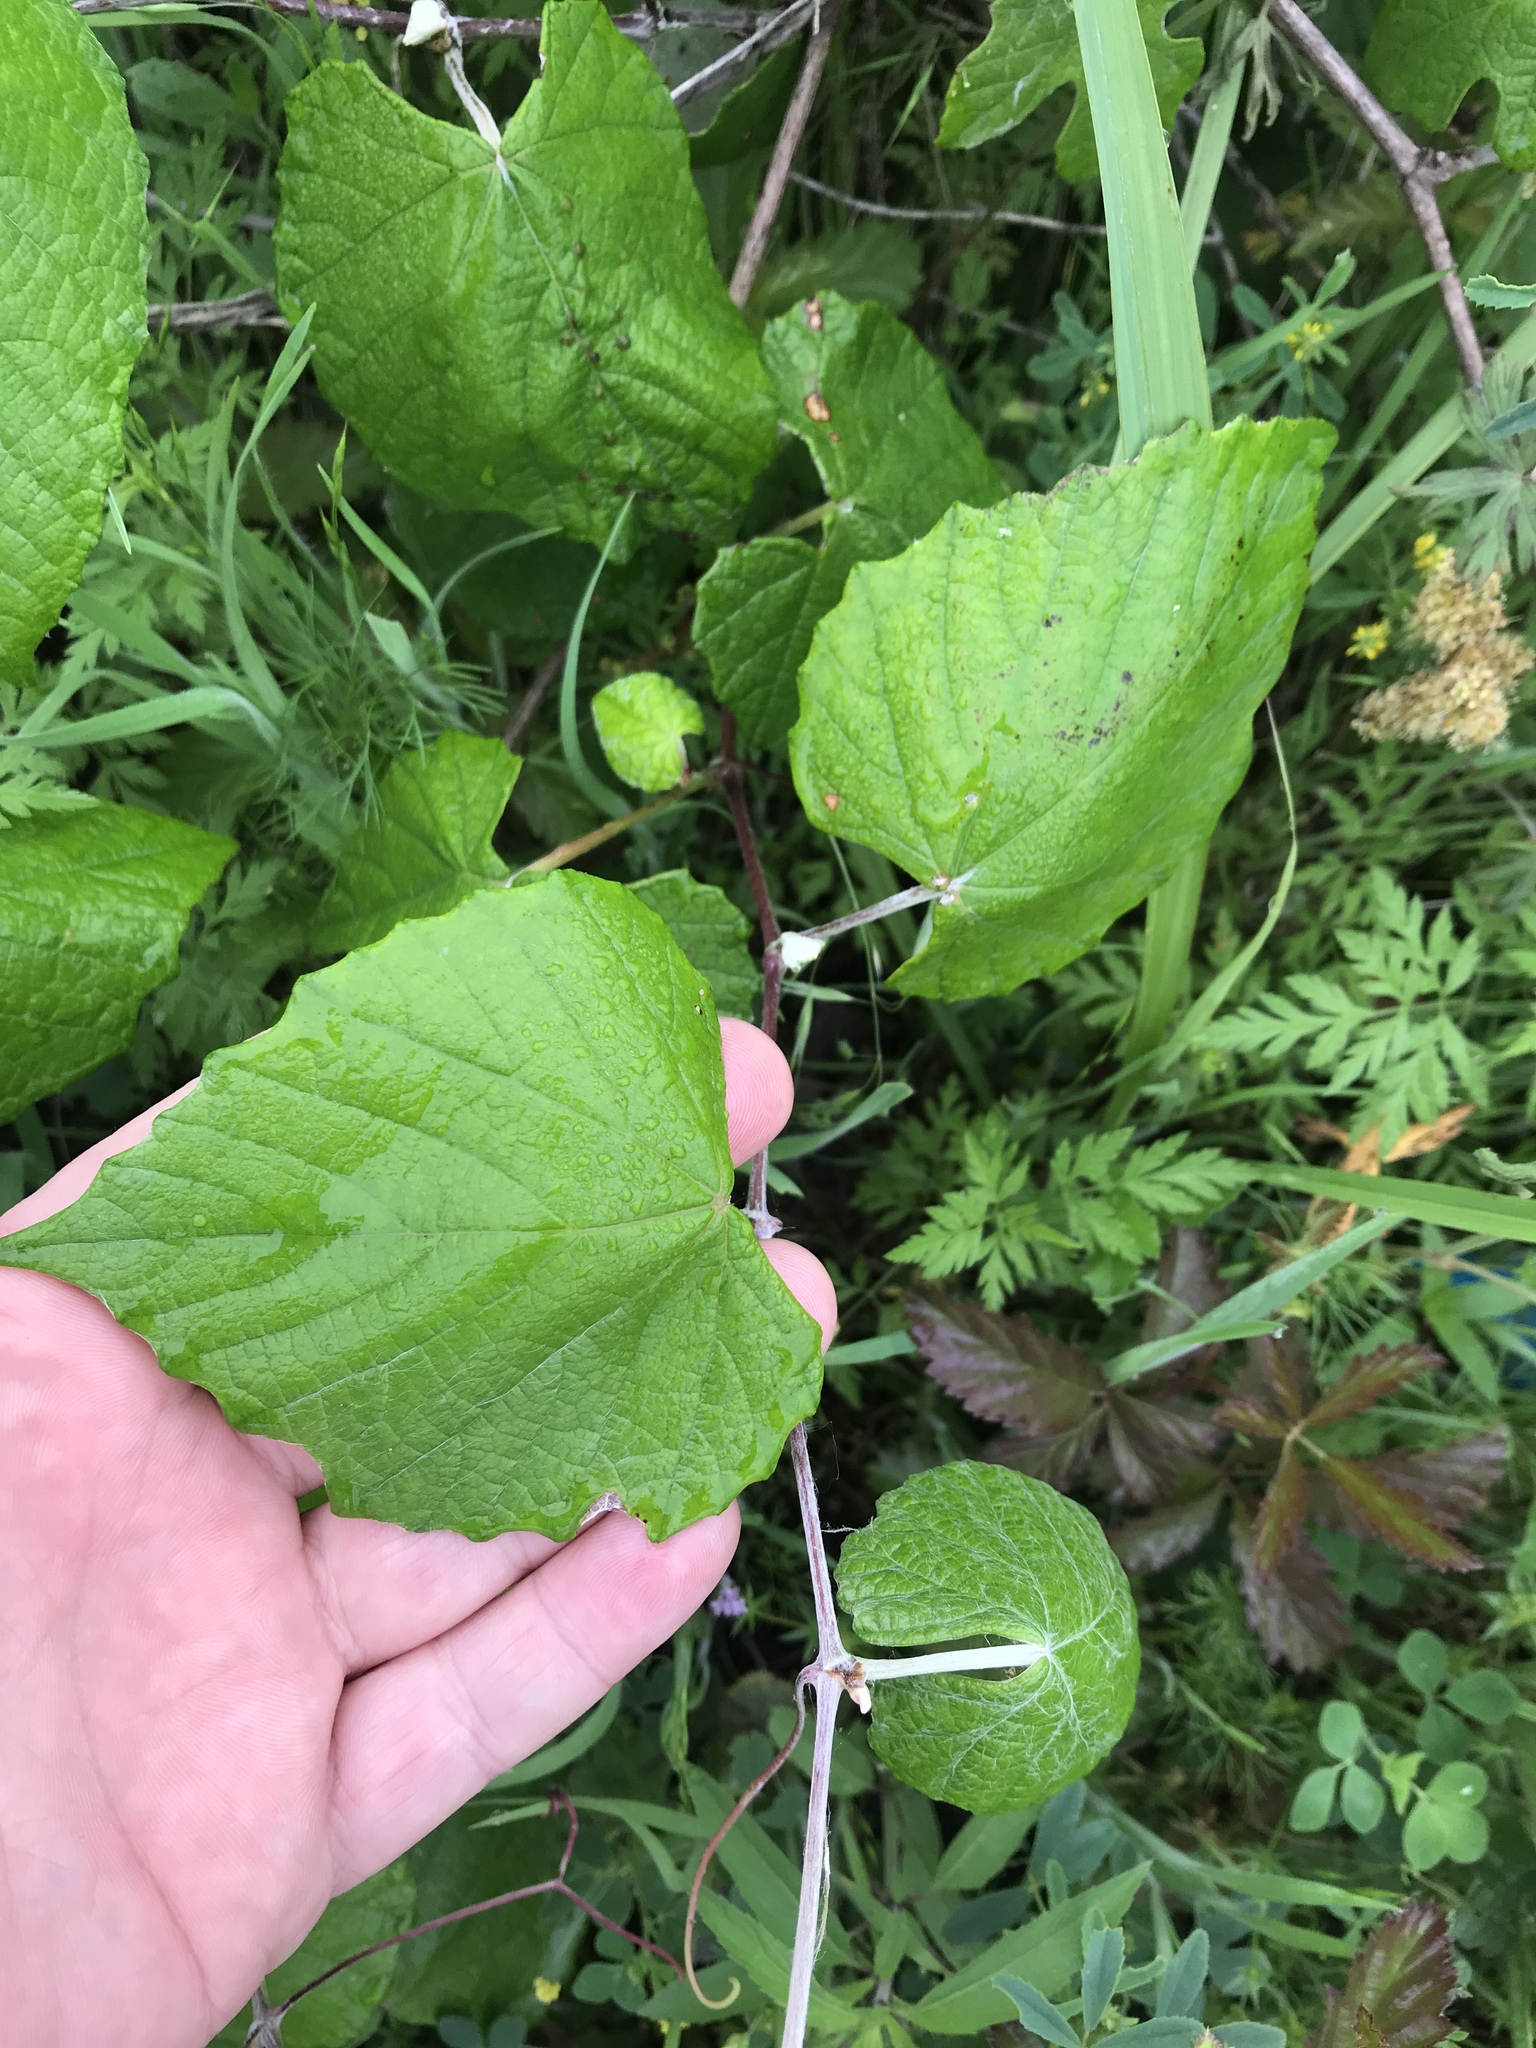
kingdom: Plantae
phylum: Tracheophyta
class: Magnoliopsida
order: Vitales
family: Vitaceae
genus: Vitis
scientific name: Vitis mustangensis
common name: Mustang grape
